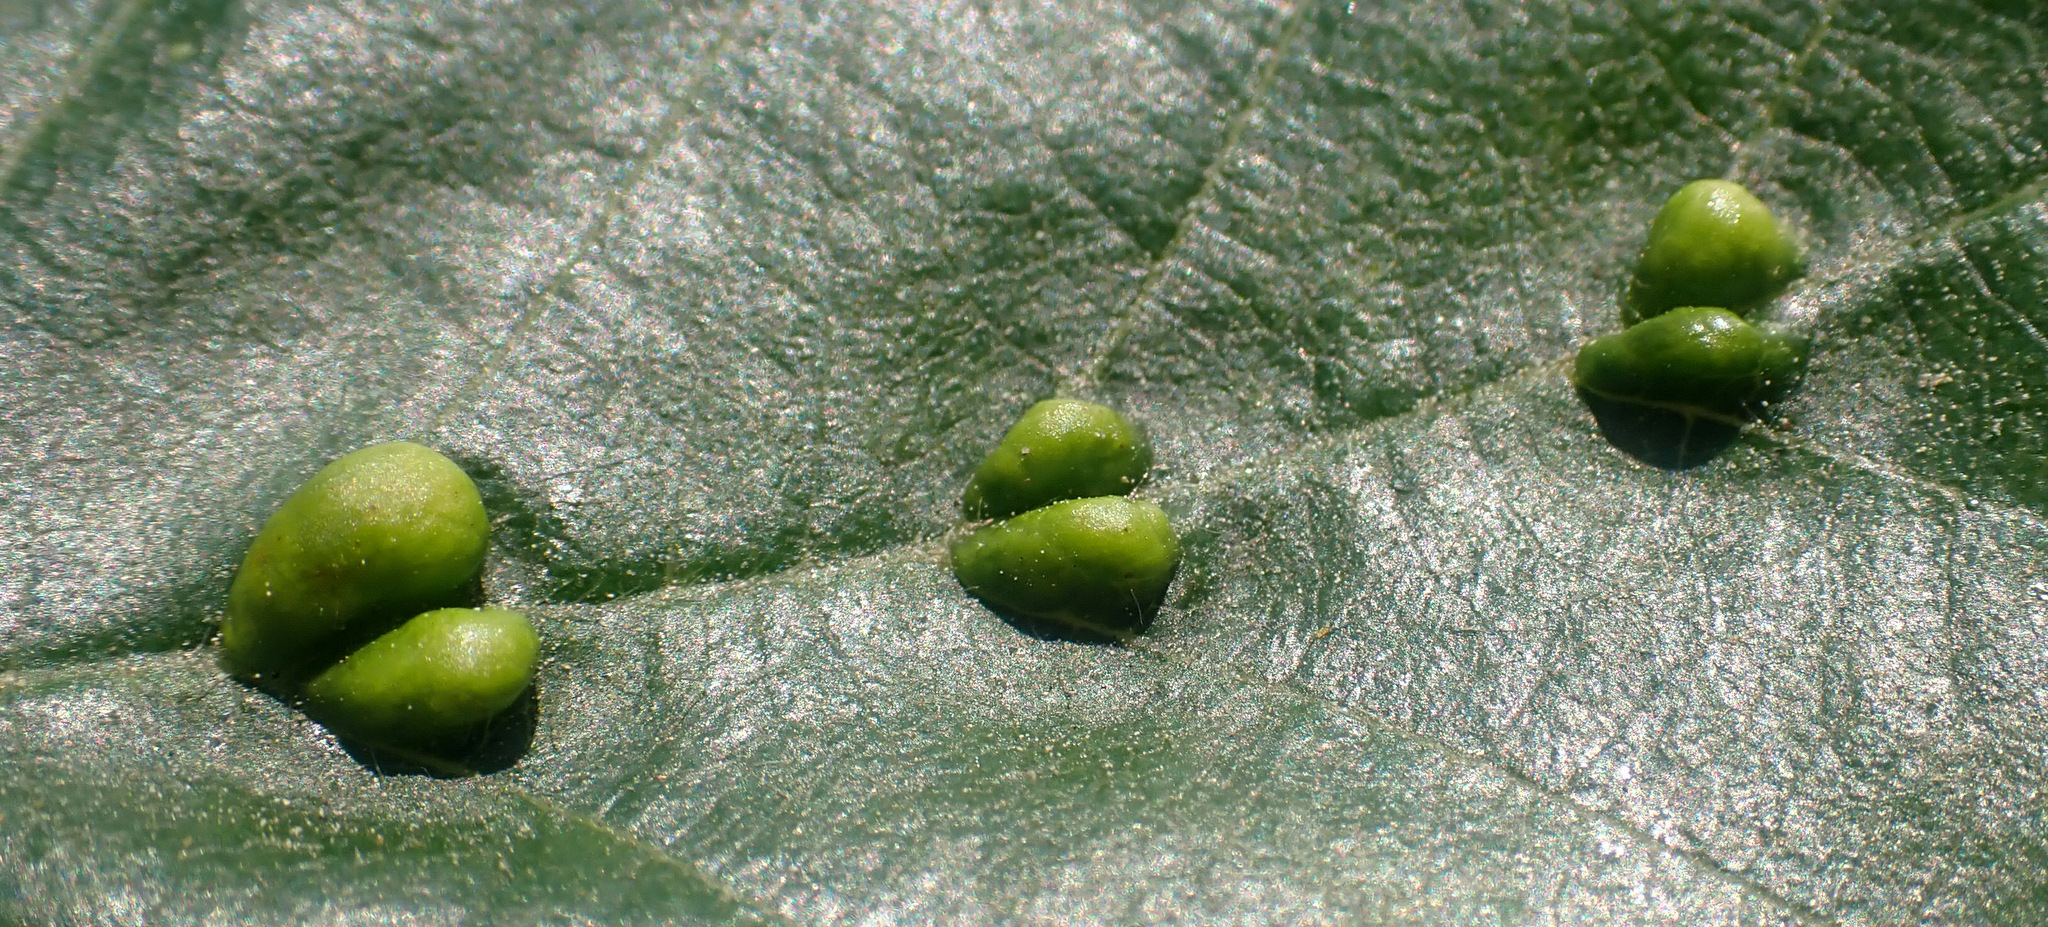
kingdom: Animalia
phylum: Arthropoda
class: Arachnida
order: Trombidiformes
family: Eriophyidae
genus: Eriophyes
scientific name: Eriophyes inangulis
